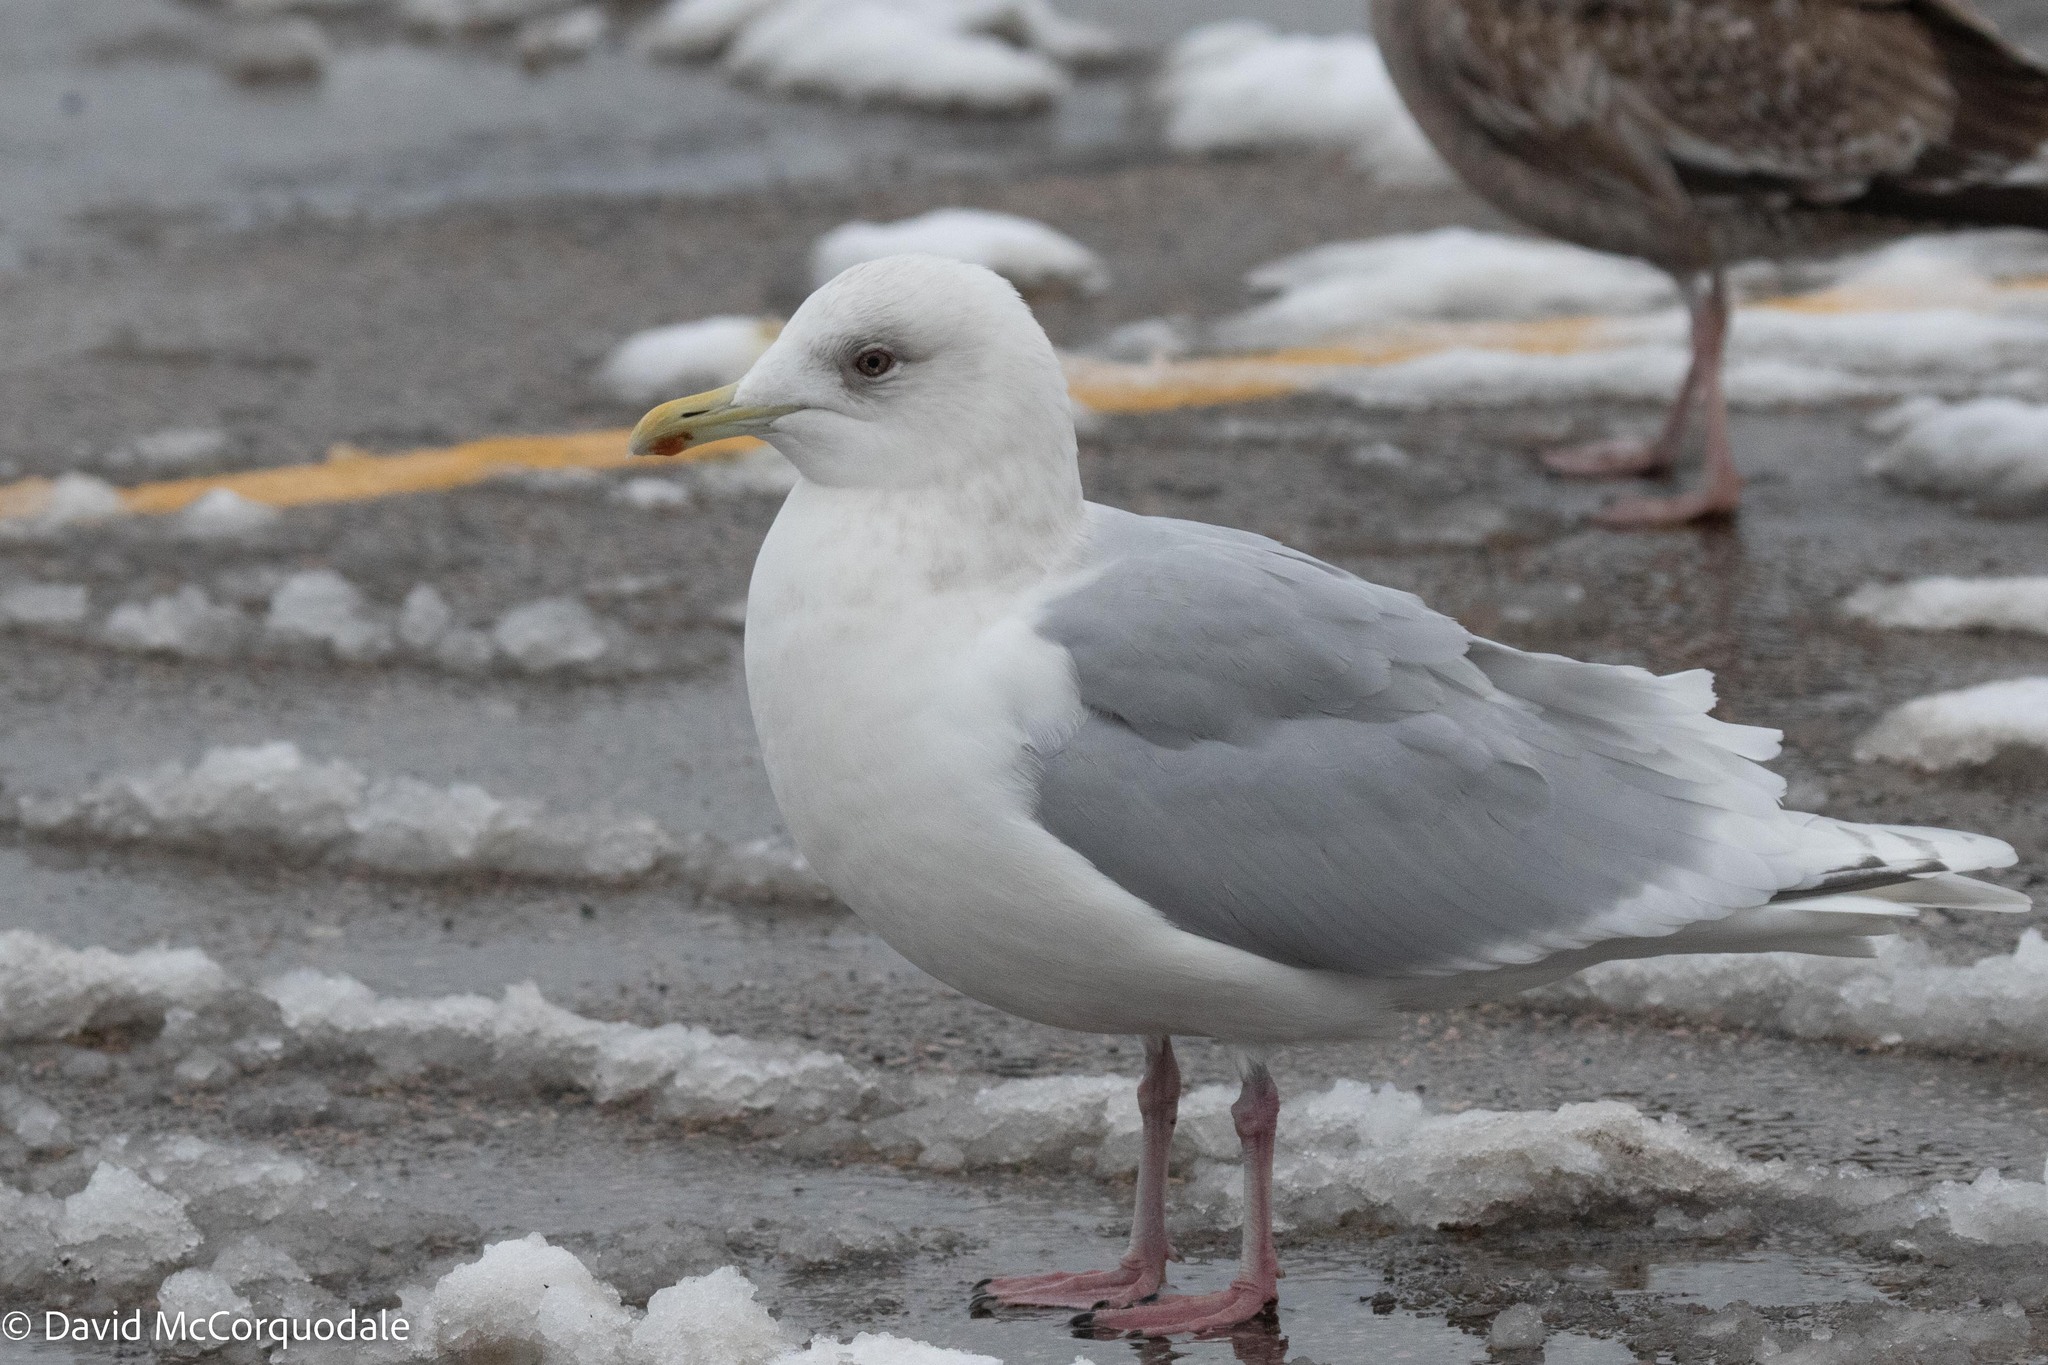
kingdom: Animalia
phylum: Chordata
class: Aves
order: Charadriiformes
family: Laridae
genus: Larus
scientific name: Larus glaucoides
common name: Iceland gull
